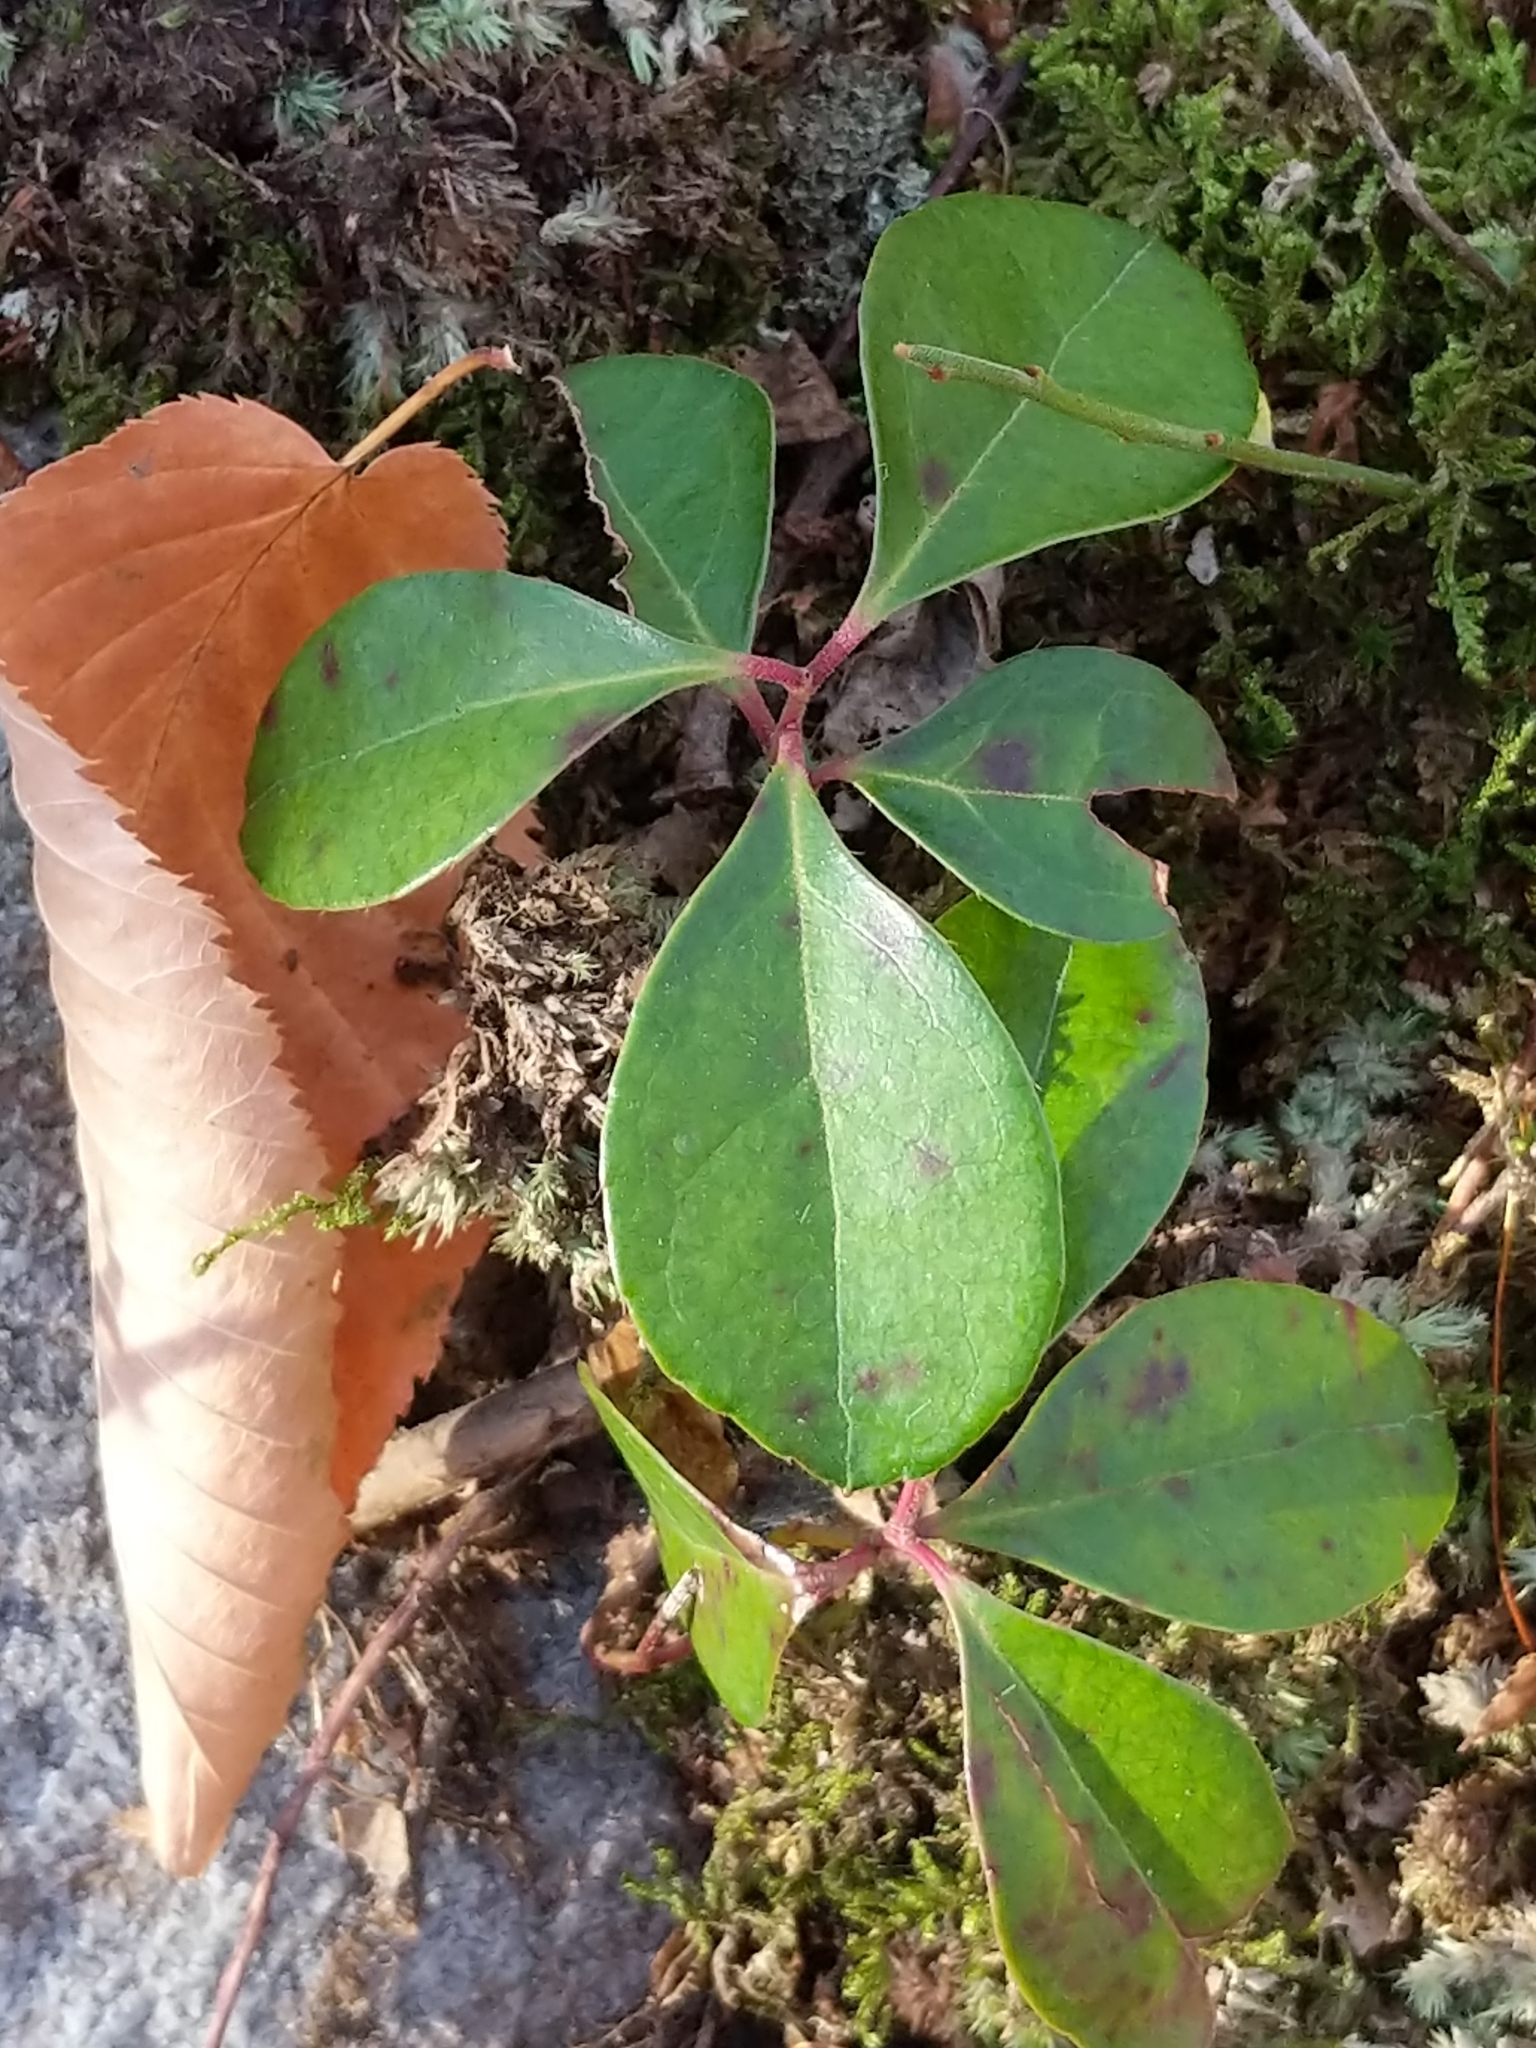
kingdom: Plantae
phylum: Tracheophyta
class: Magnoliopsida
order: Ericales
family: Ericaceae
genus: Gaultheria
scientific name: Gaultheria procumbens
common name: Checkerberry
